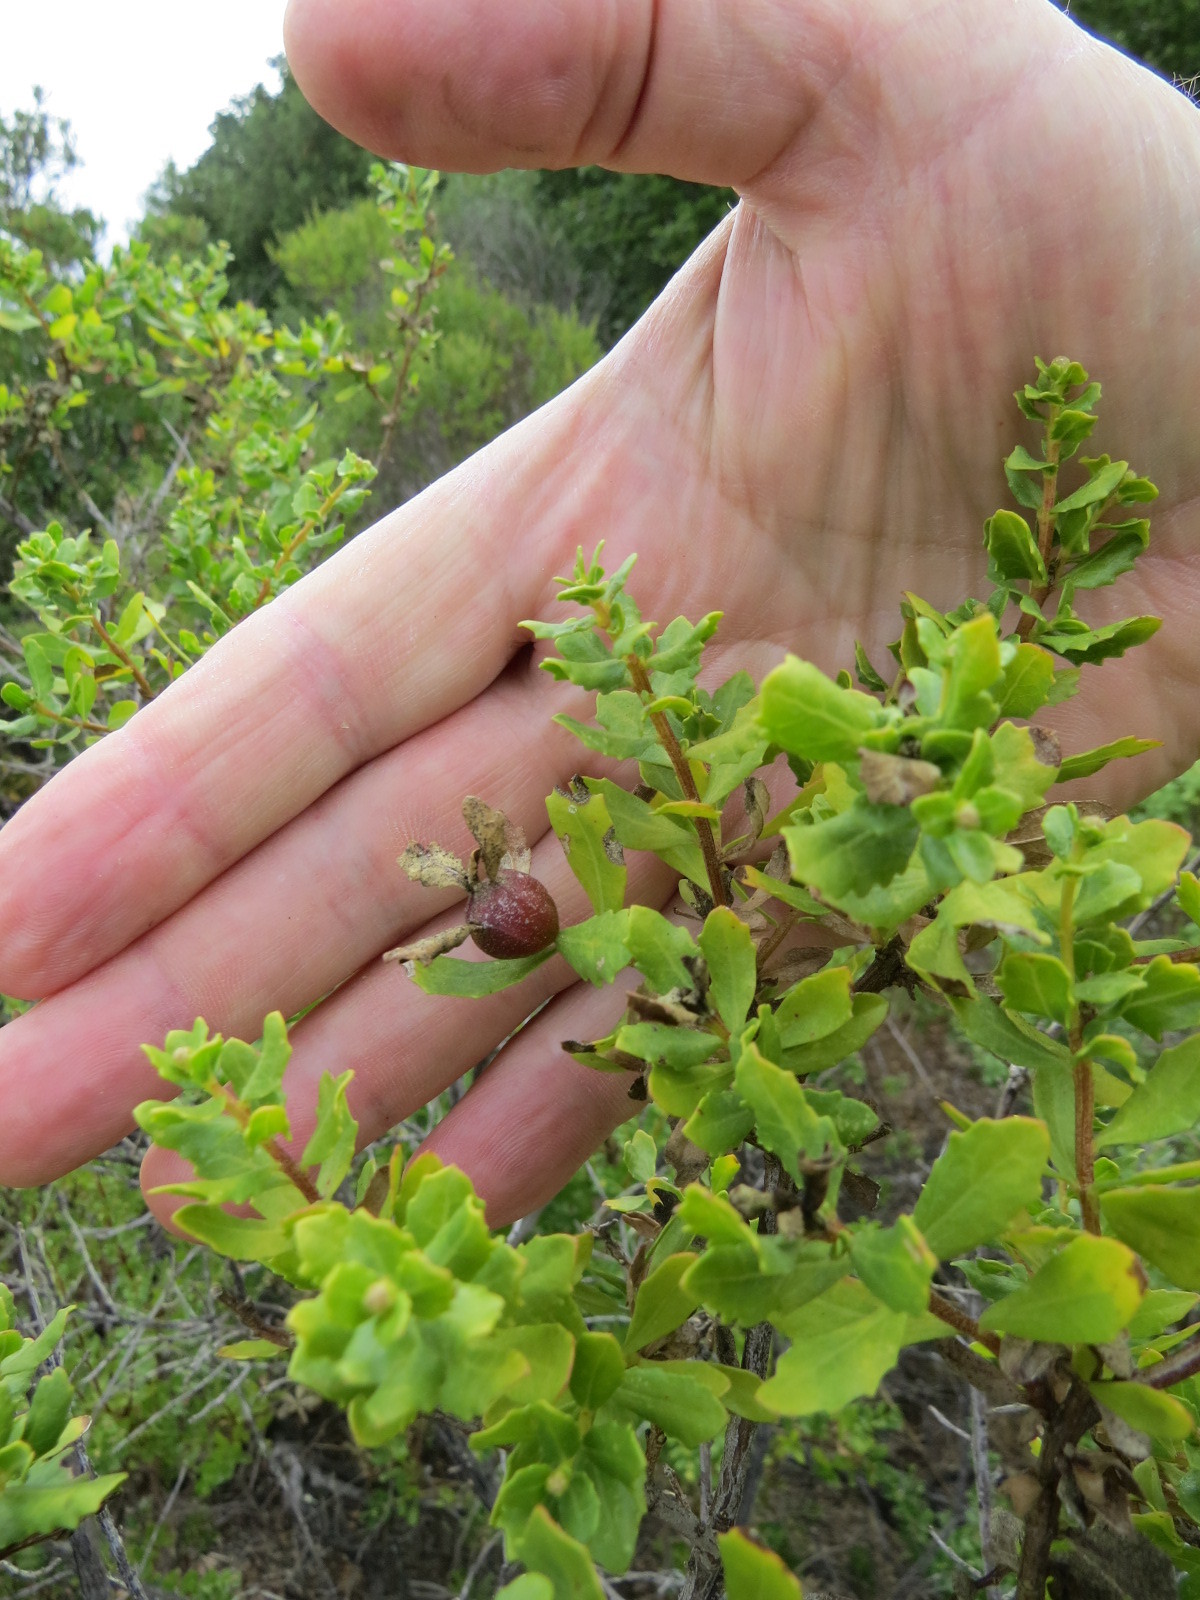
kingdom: Animalia
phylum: Arthropoda
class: Insecta
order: Lepidoptera
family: Gelechiidae
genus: Gnorimoschema
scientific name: Gnorimoschema baccharisella
